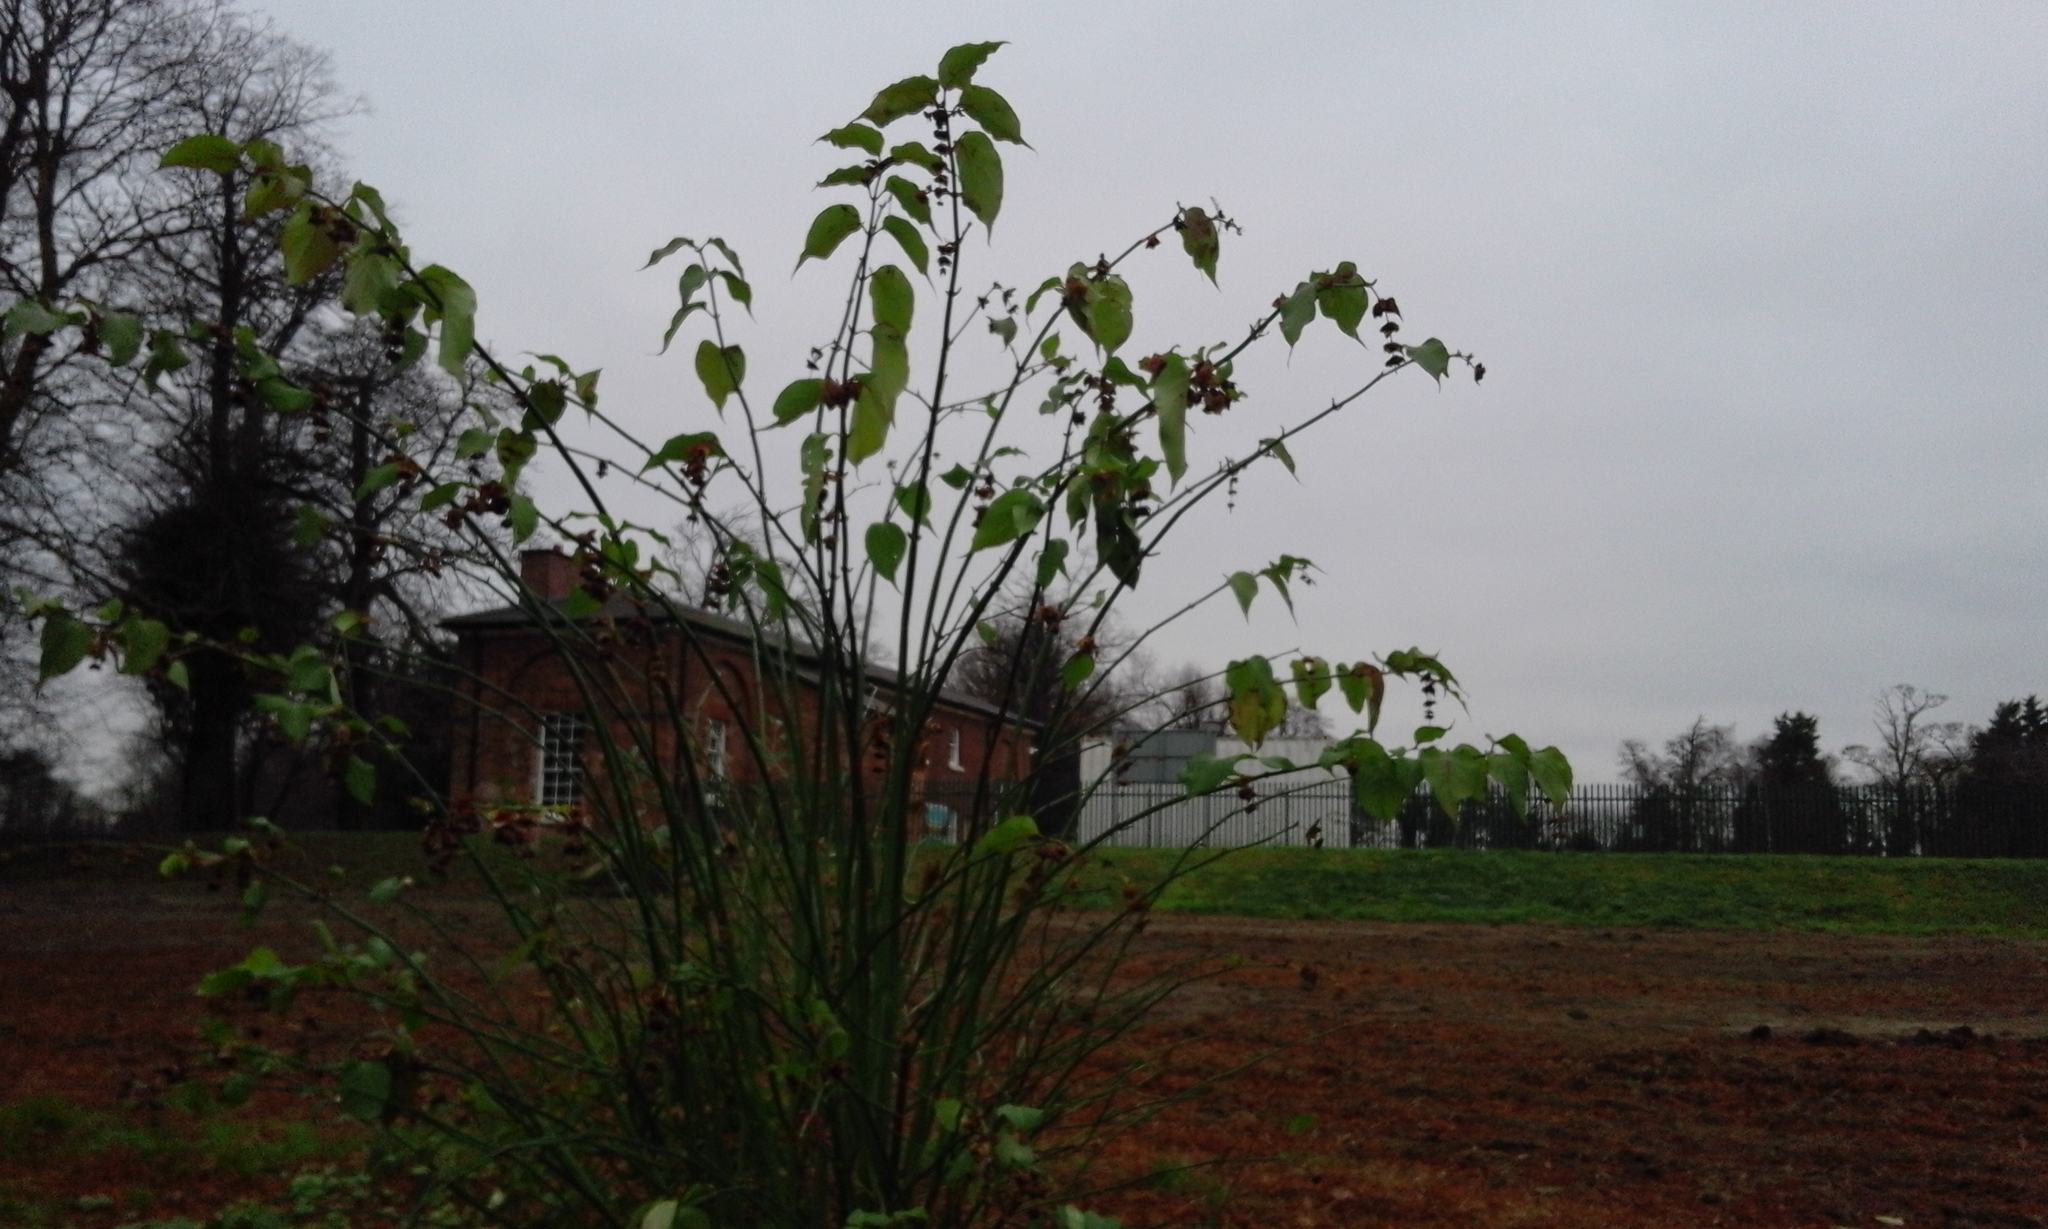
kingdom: Plantae
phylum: Tracheophyta
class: Magnoliopsida
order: Dipsacales
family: Caprifoliaceae
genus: Leycesteria
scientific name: Leycesteria formosa
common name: Himalayan honeysuckle
